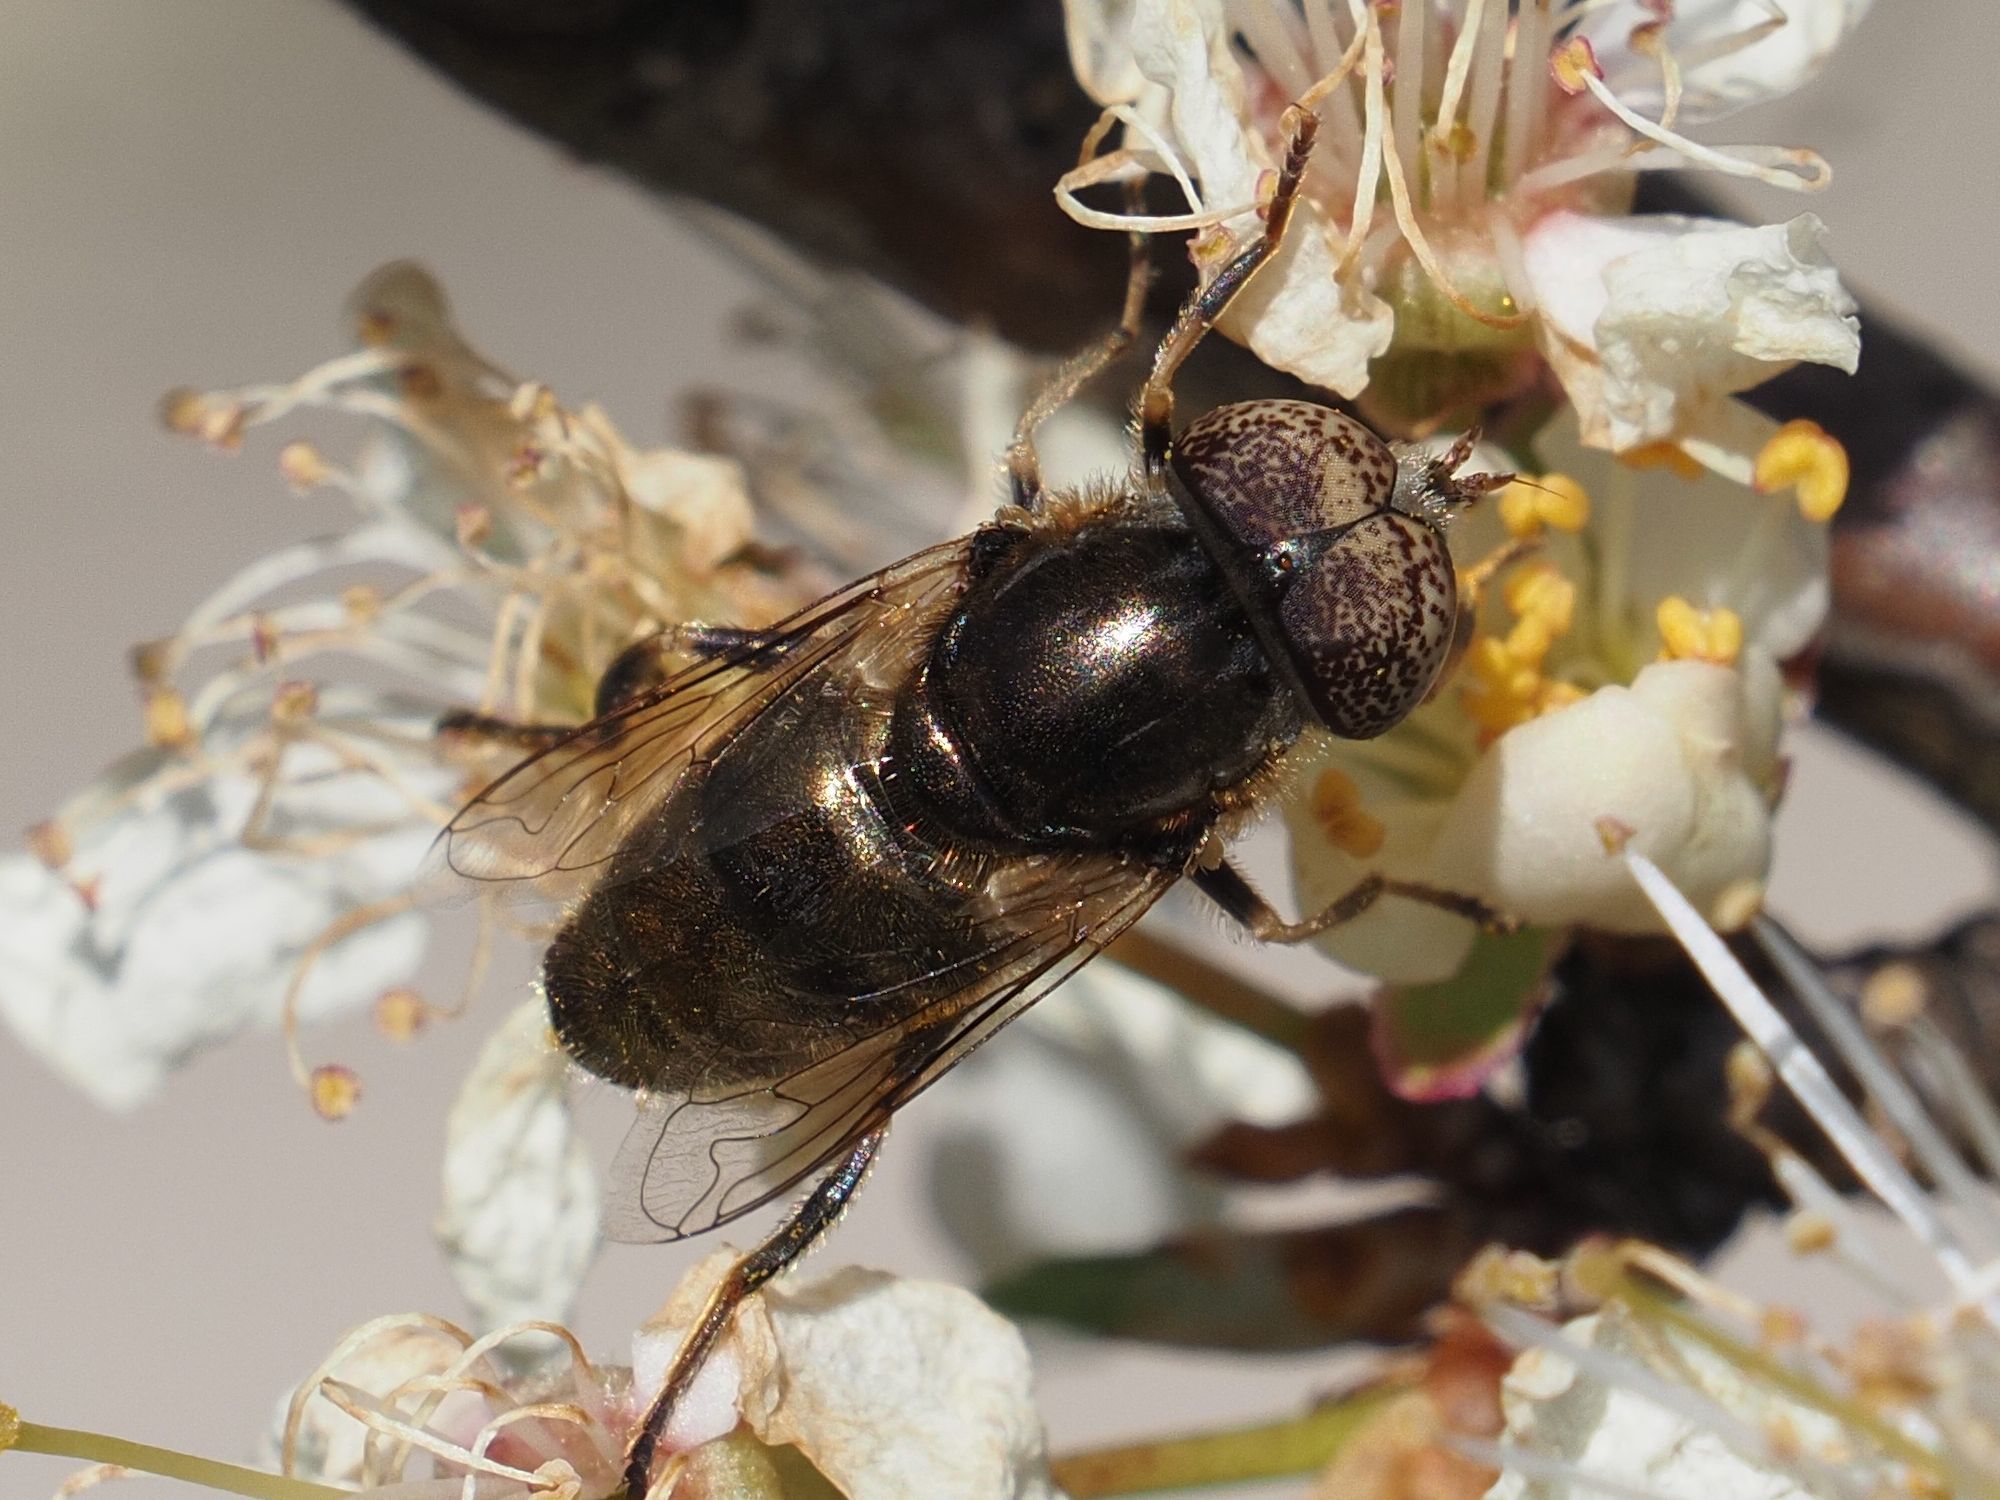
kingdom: Animalia
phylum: Arthropoda
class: Insecta
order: Diptera
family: Syrphidae
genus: Eristalinus
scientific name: Eristalinus aeneus
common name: Syrphid fly
